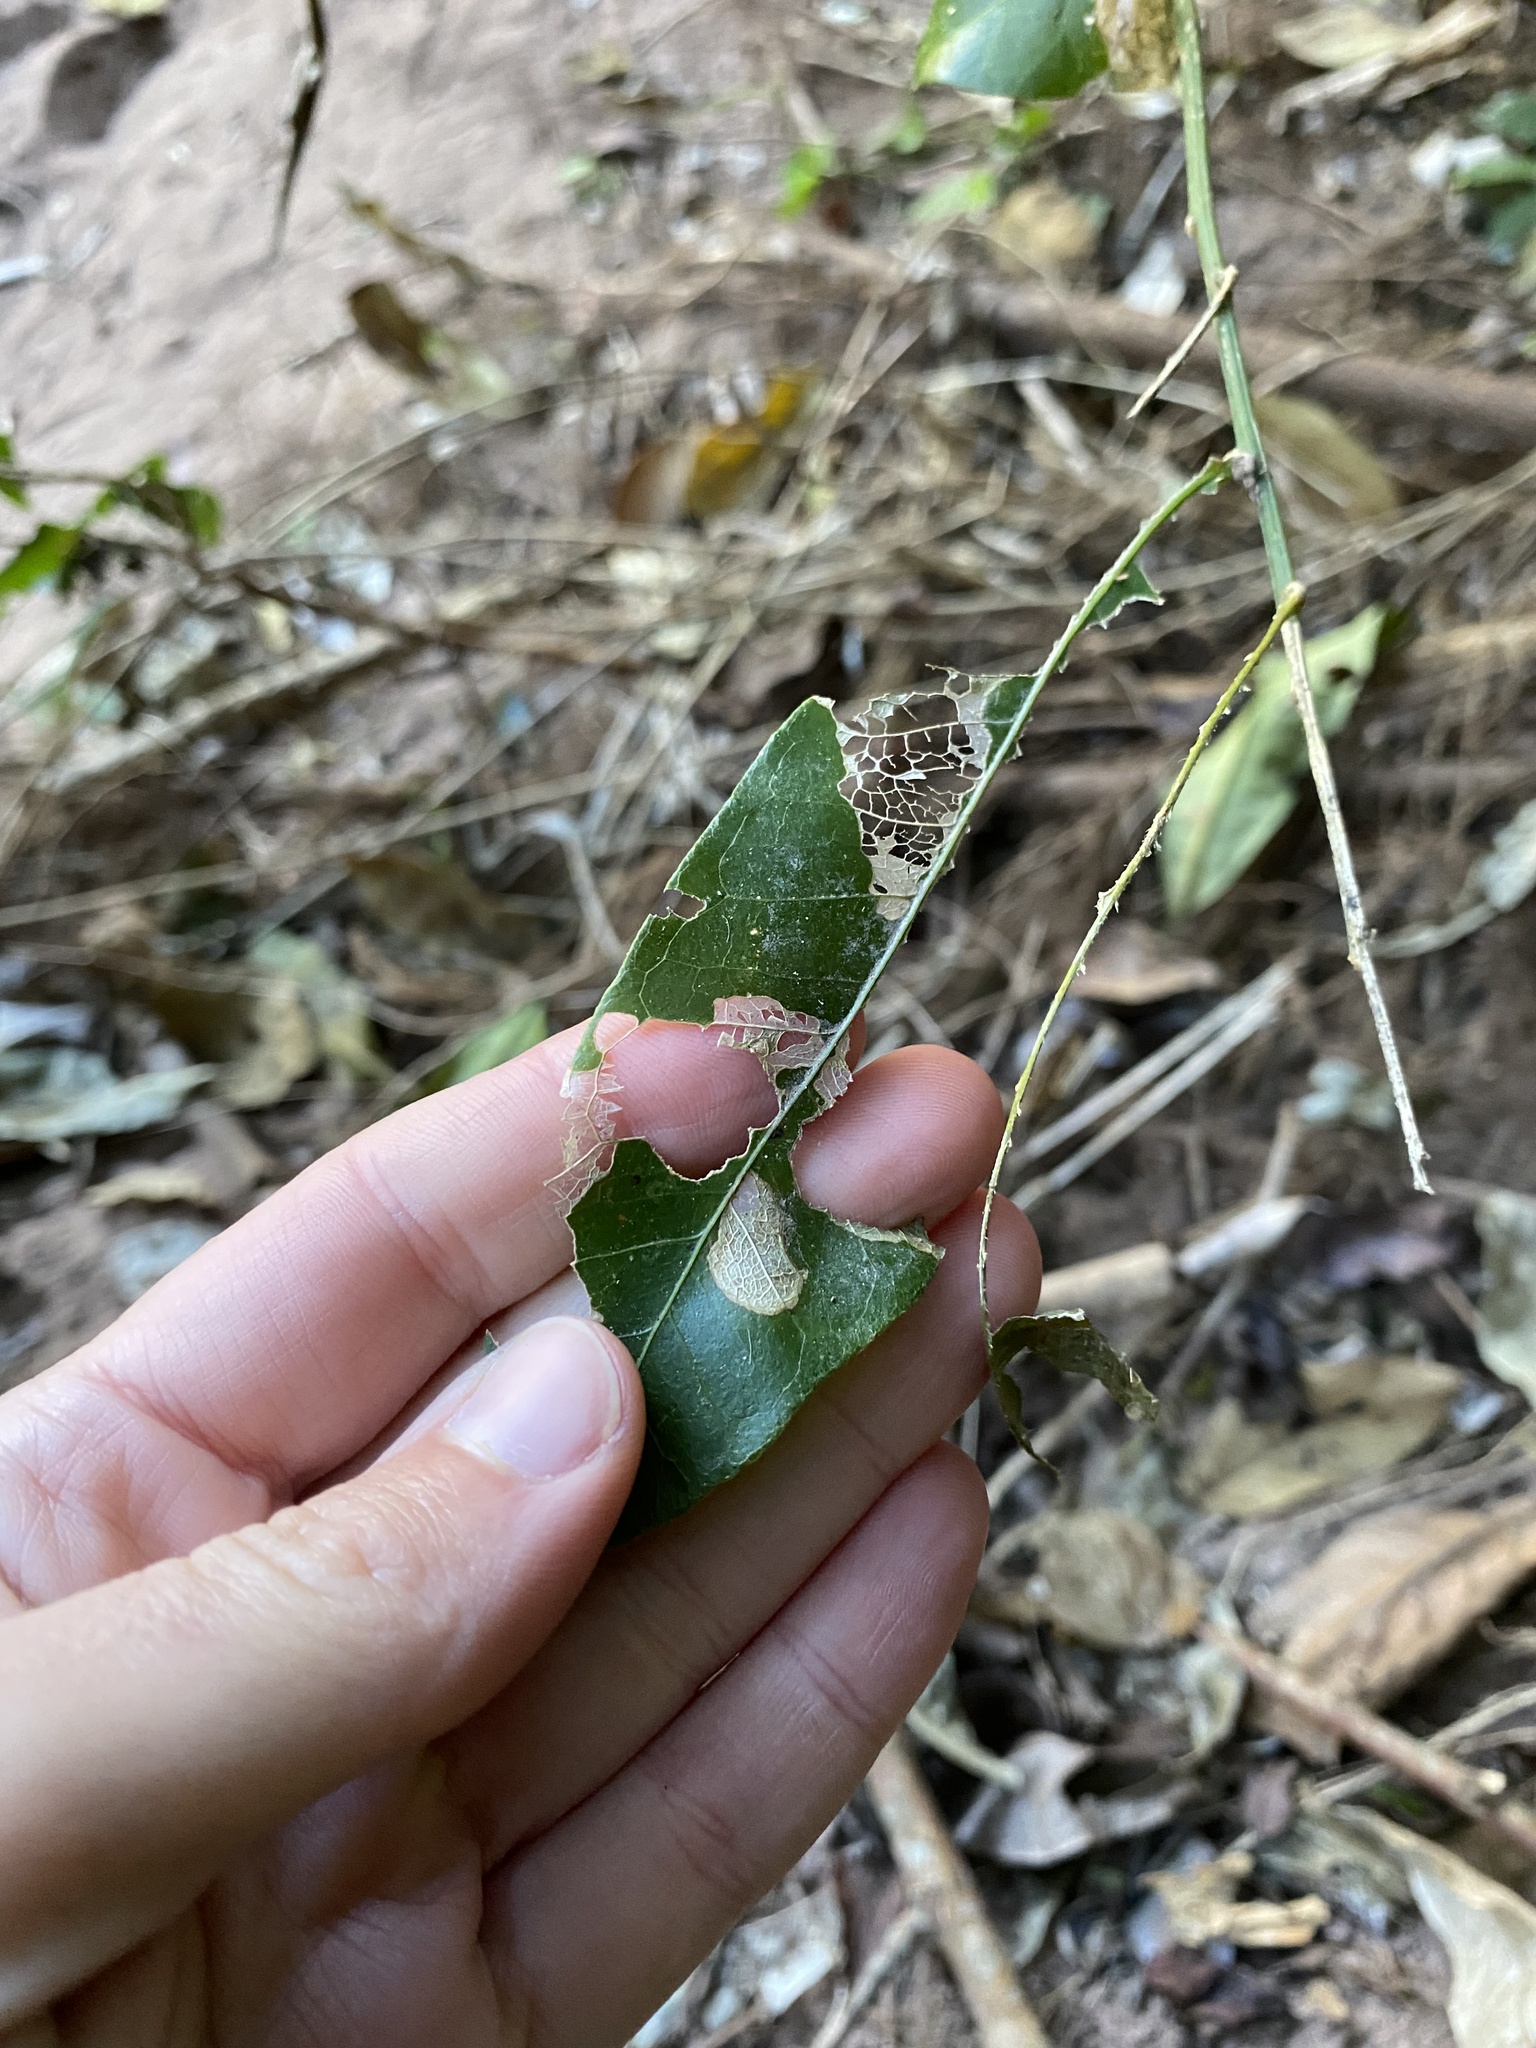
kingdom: Plantae
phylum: Tracheophyta
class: Magnoliopsida
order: Sapindales
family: Sapindaceae
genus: Deinbollia
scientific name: Deinbollia oblongifolia
